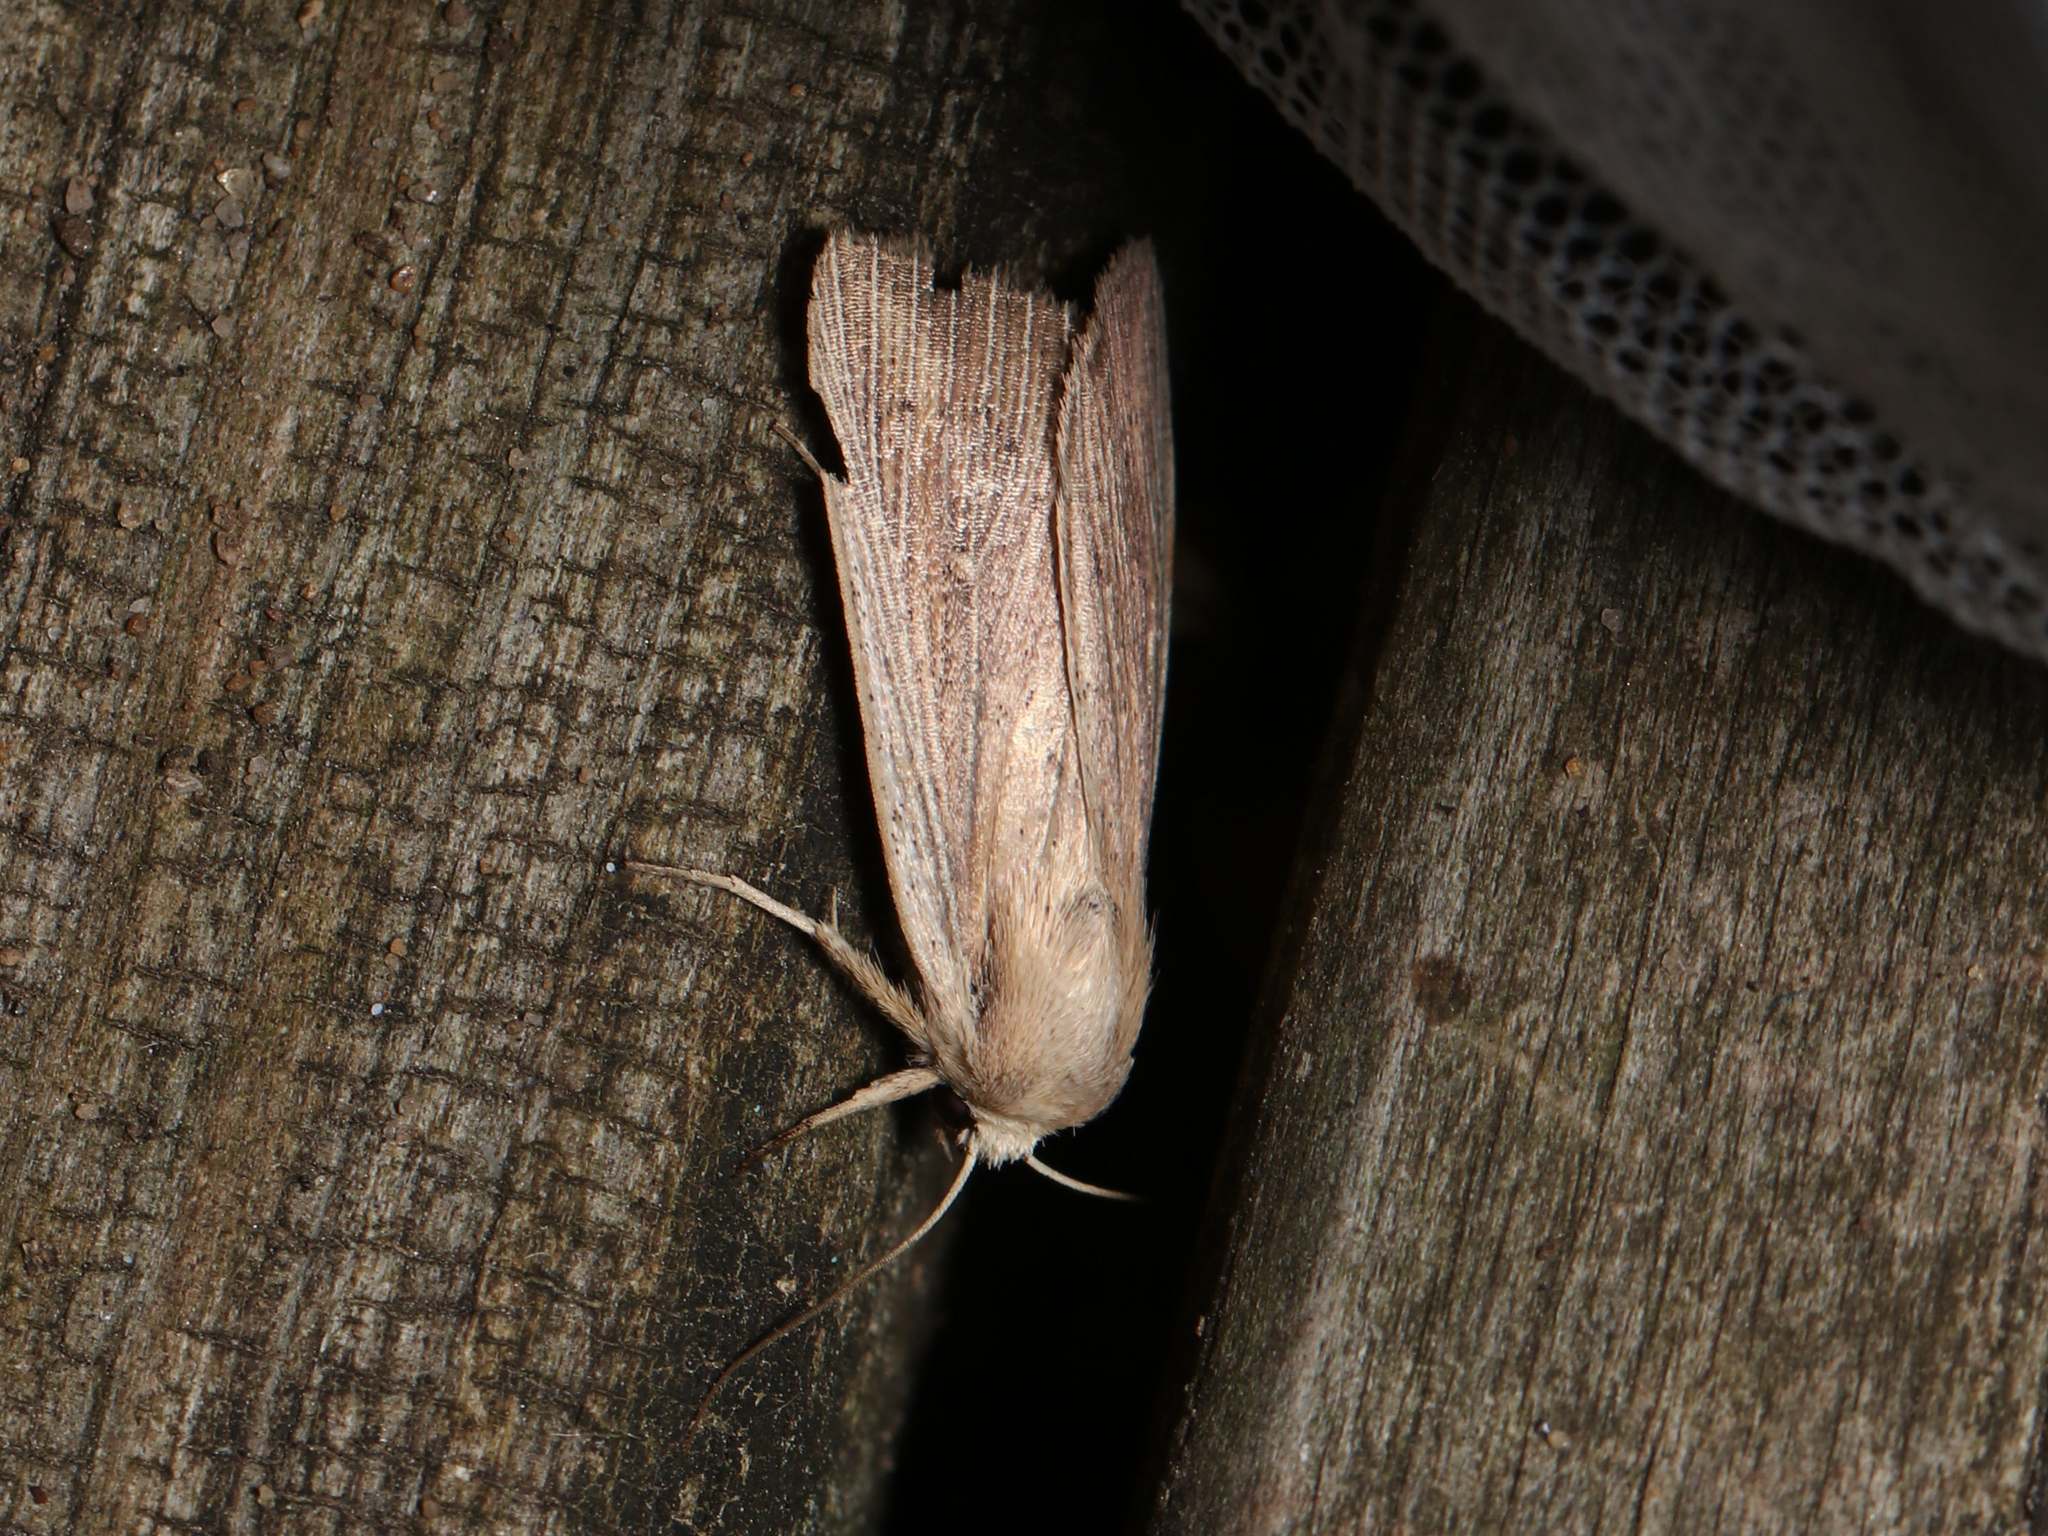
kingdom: Animalia
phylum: Arthropoda
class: Insecta
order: Lepidoptera
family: Noctuidae
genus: Leucania
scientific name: Leucania linita
